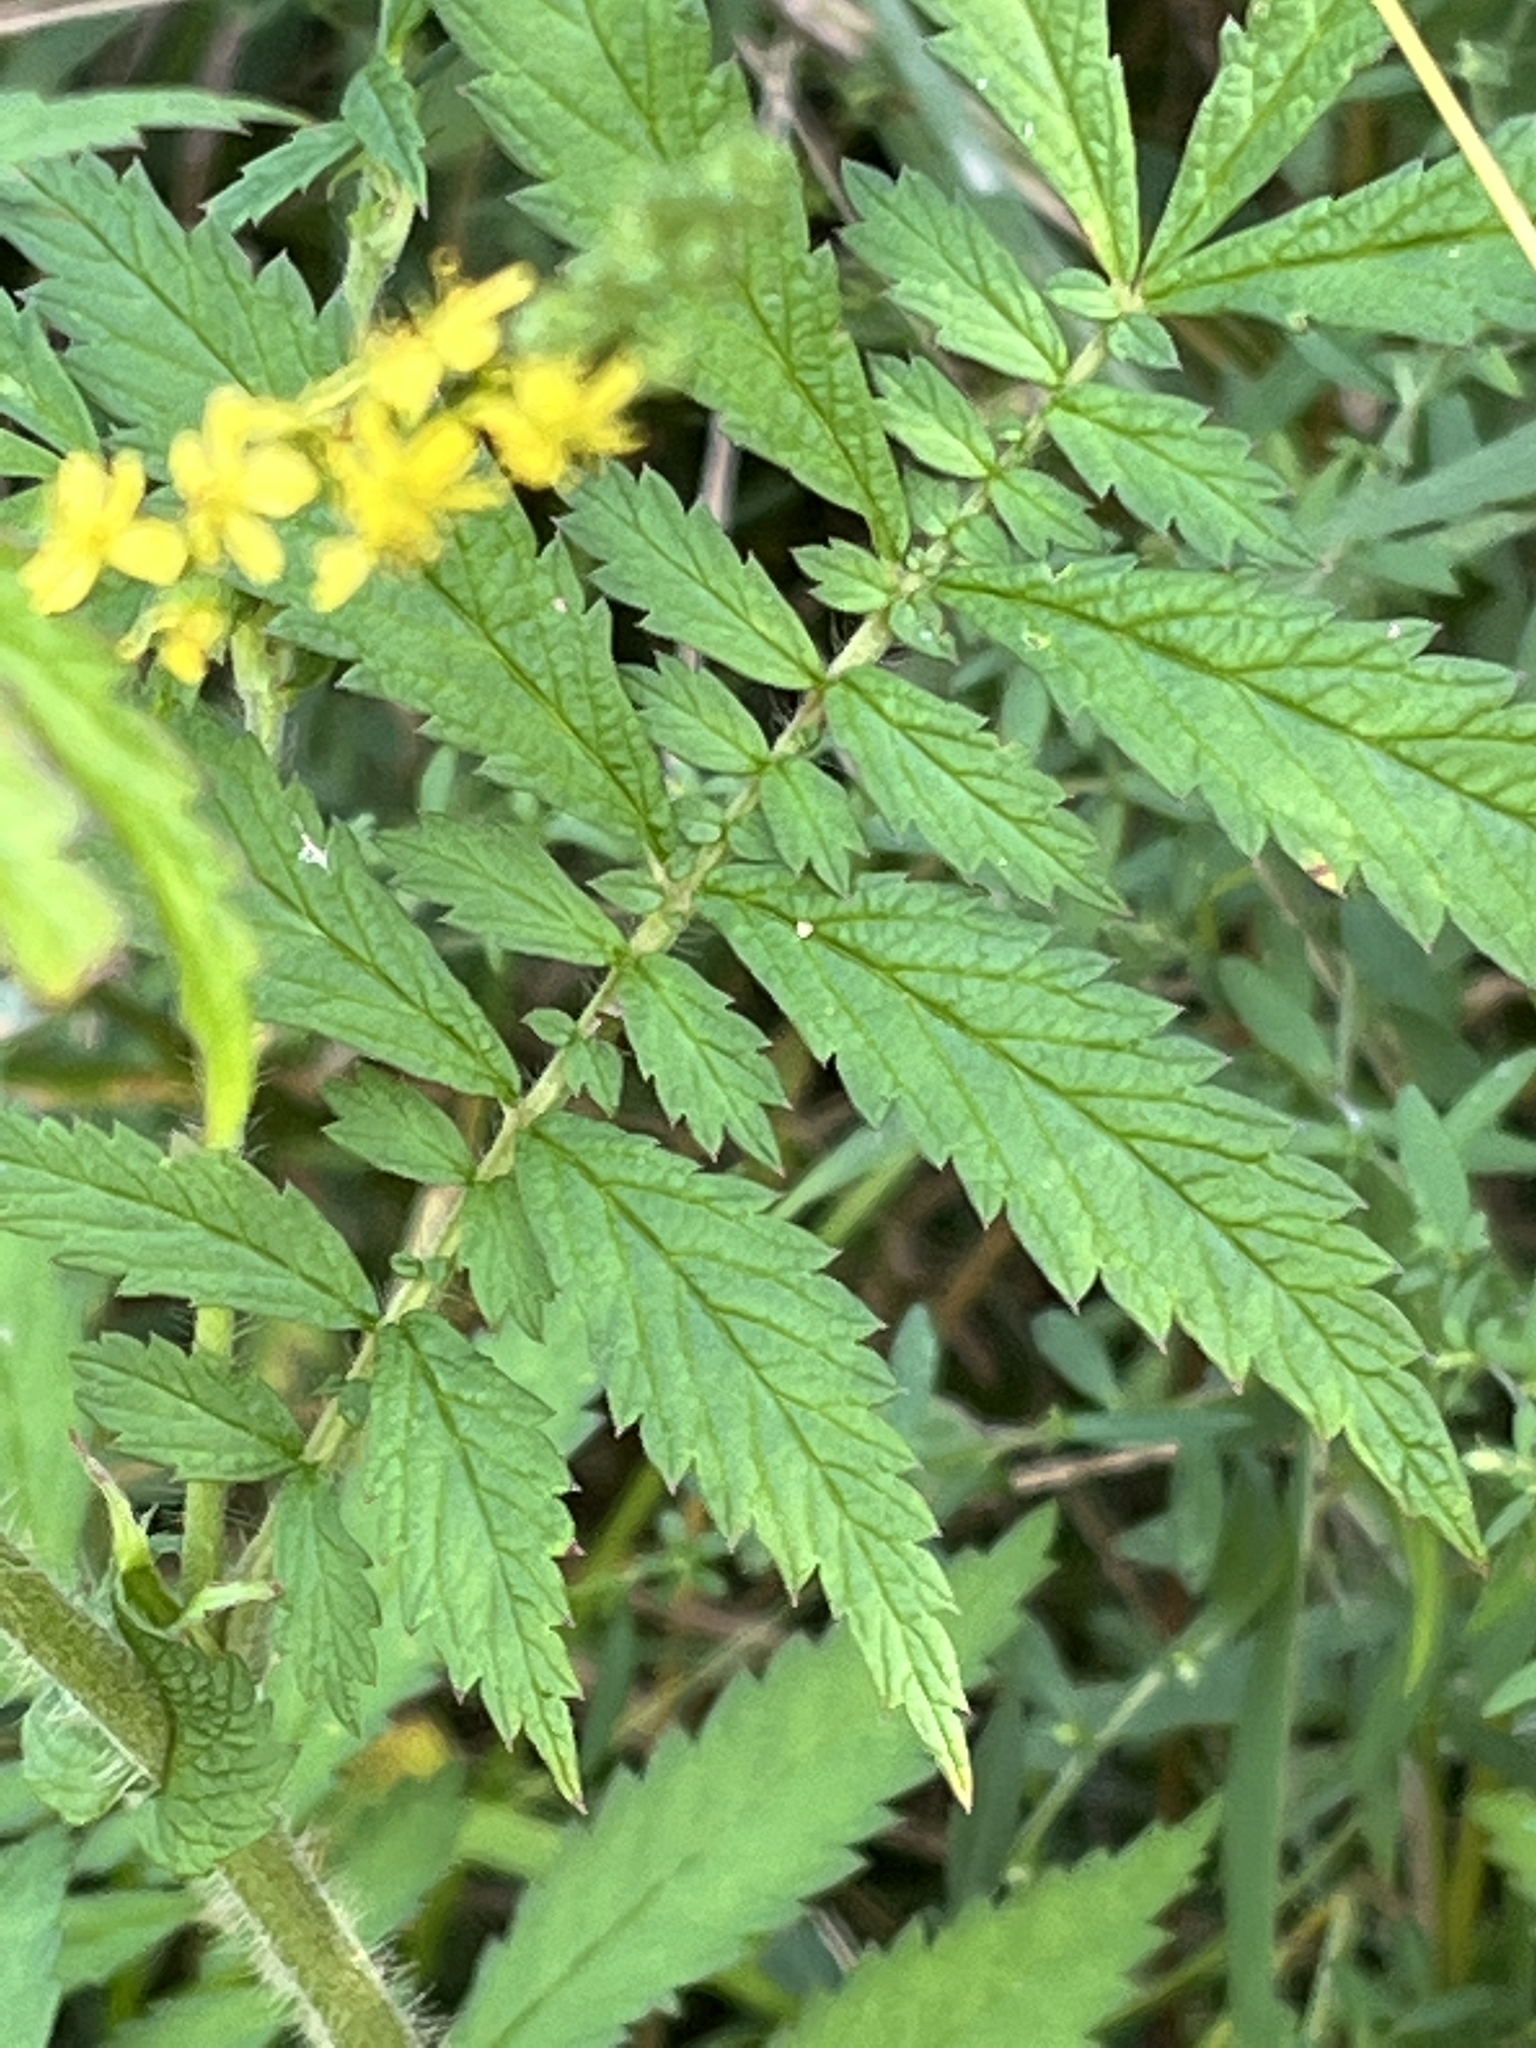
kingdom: Plantae
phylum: Tracheophyta
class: Magnoliopsida
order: Rosales
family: Rosaceae
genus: Agrimonia
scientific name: Agrimonia parviflora
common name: Harvest-lice
